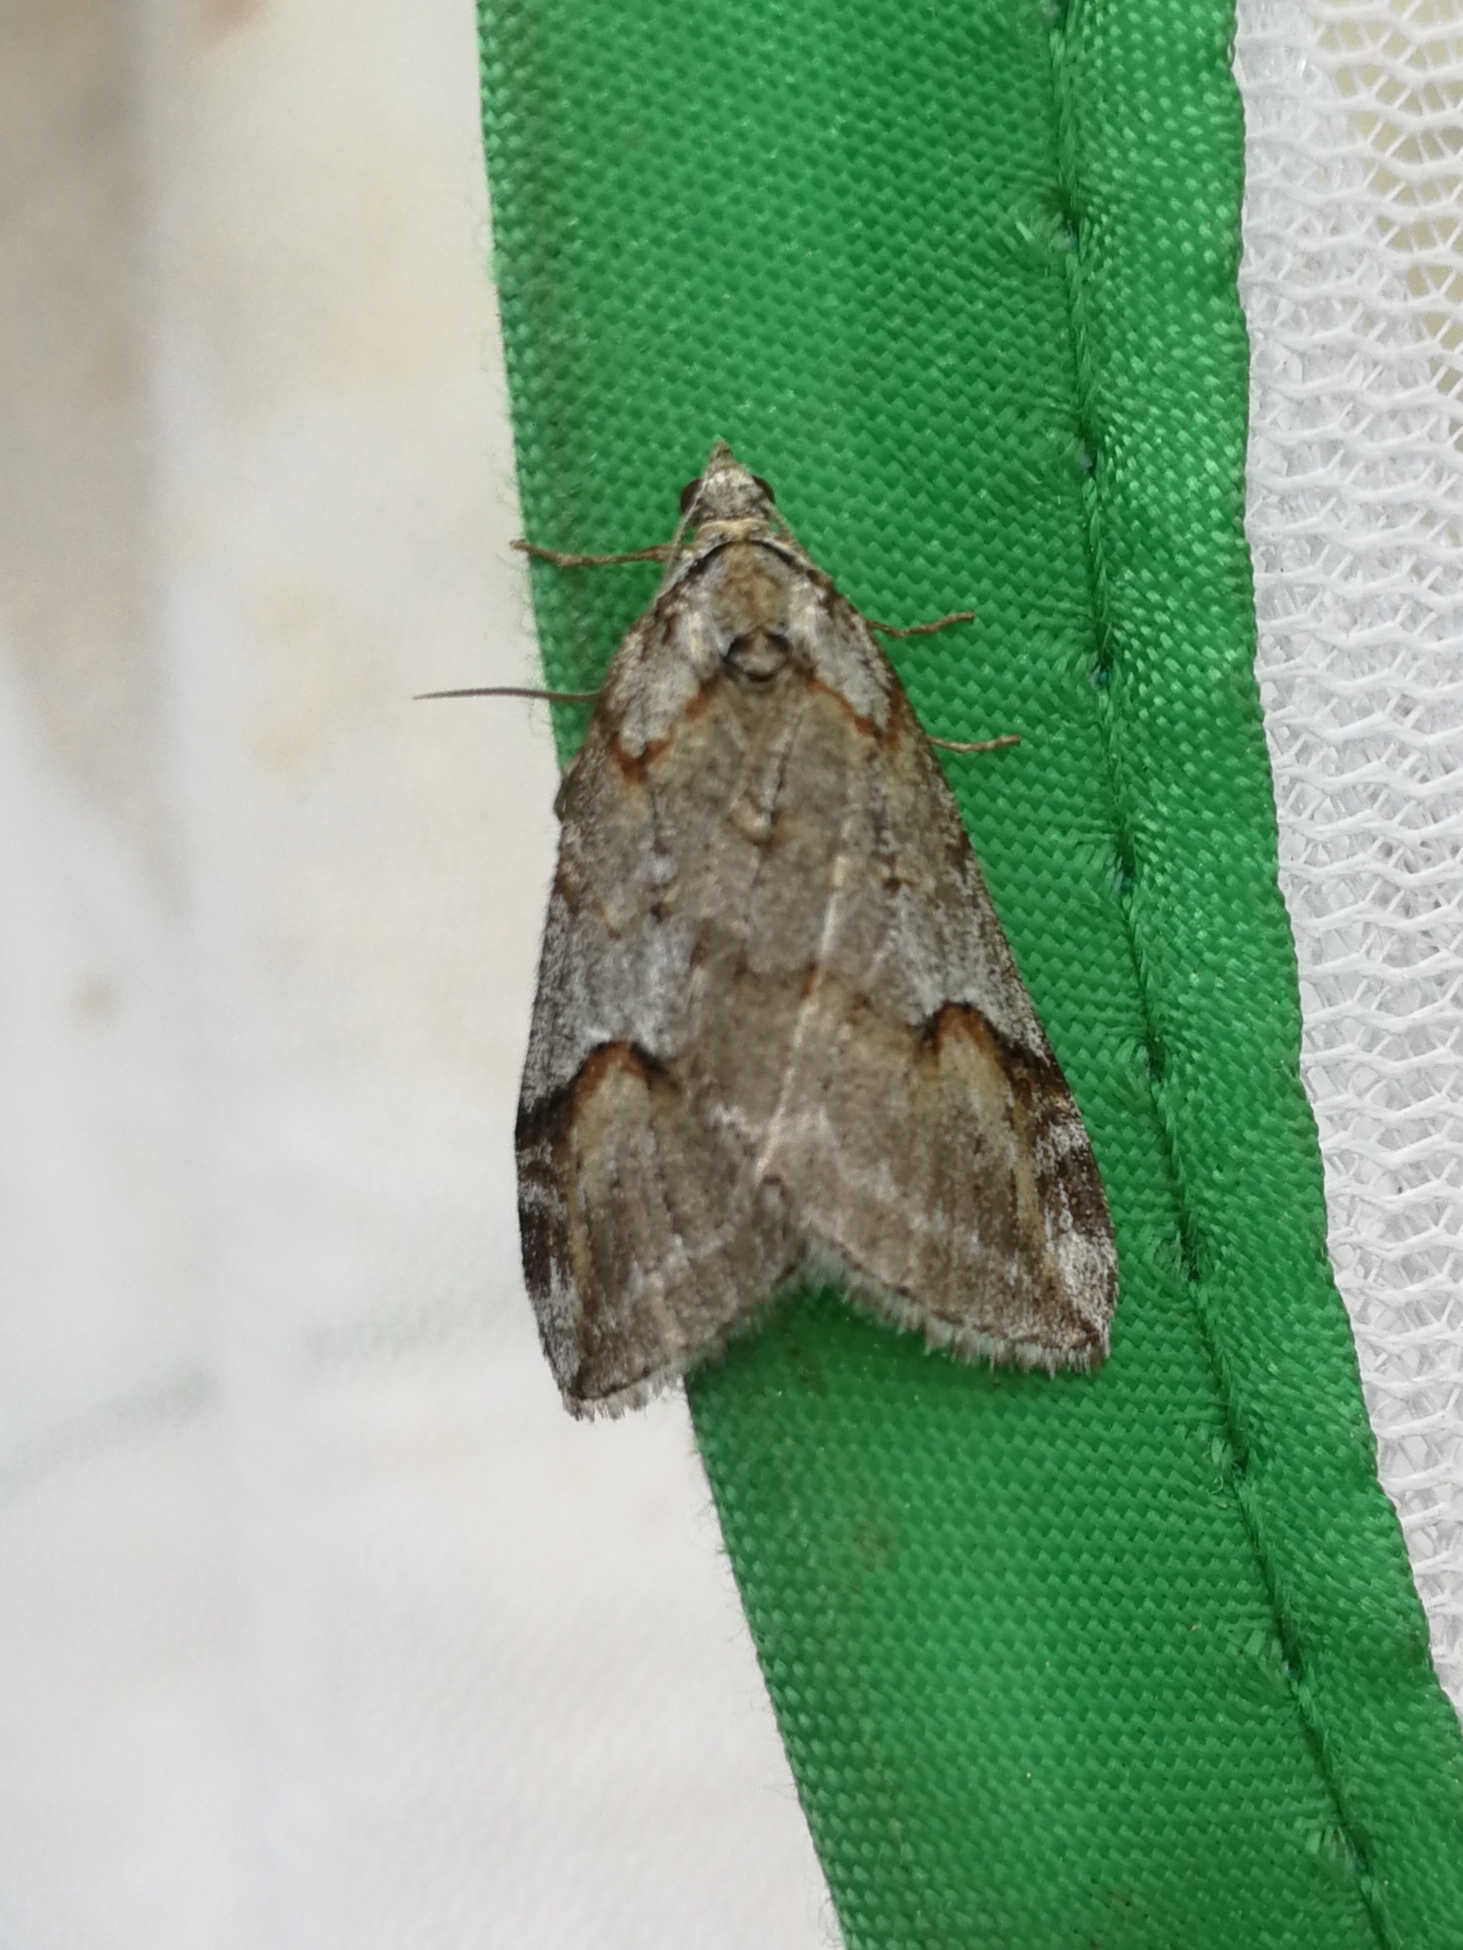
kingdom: Animalia
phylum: Arthropoda
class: Insecta
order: Lepidoptera
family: Geometridae
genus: Chesias
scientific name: Chesias rufata
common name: Broom-tip
